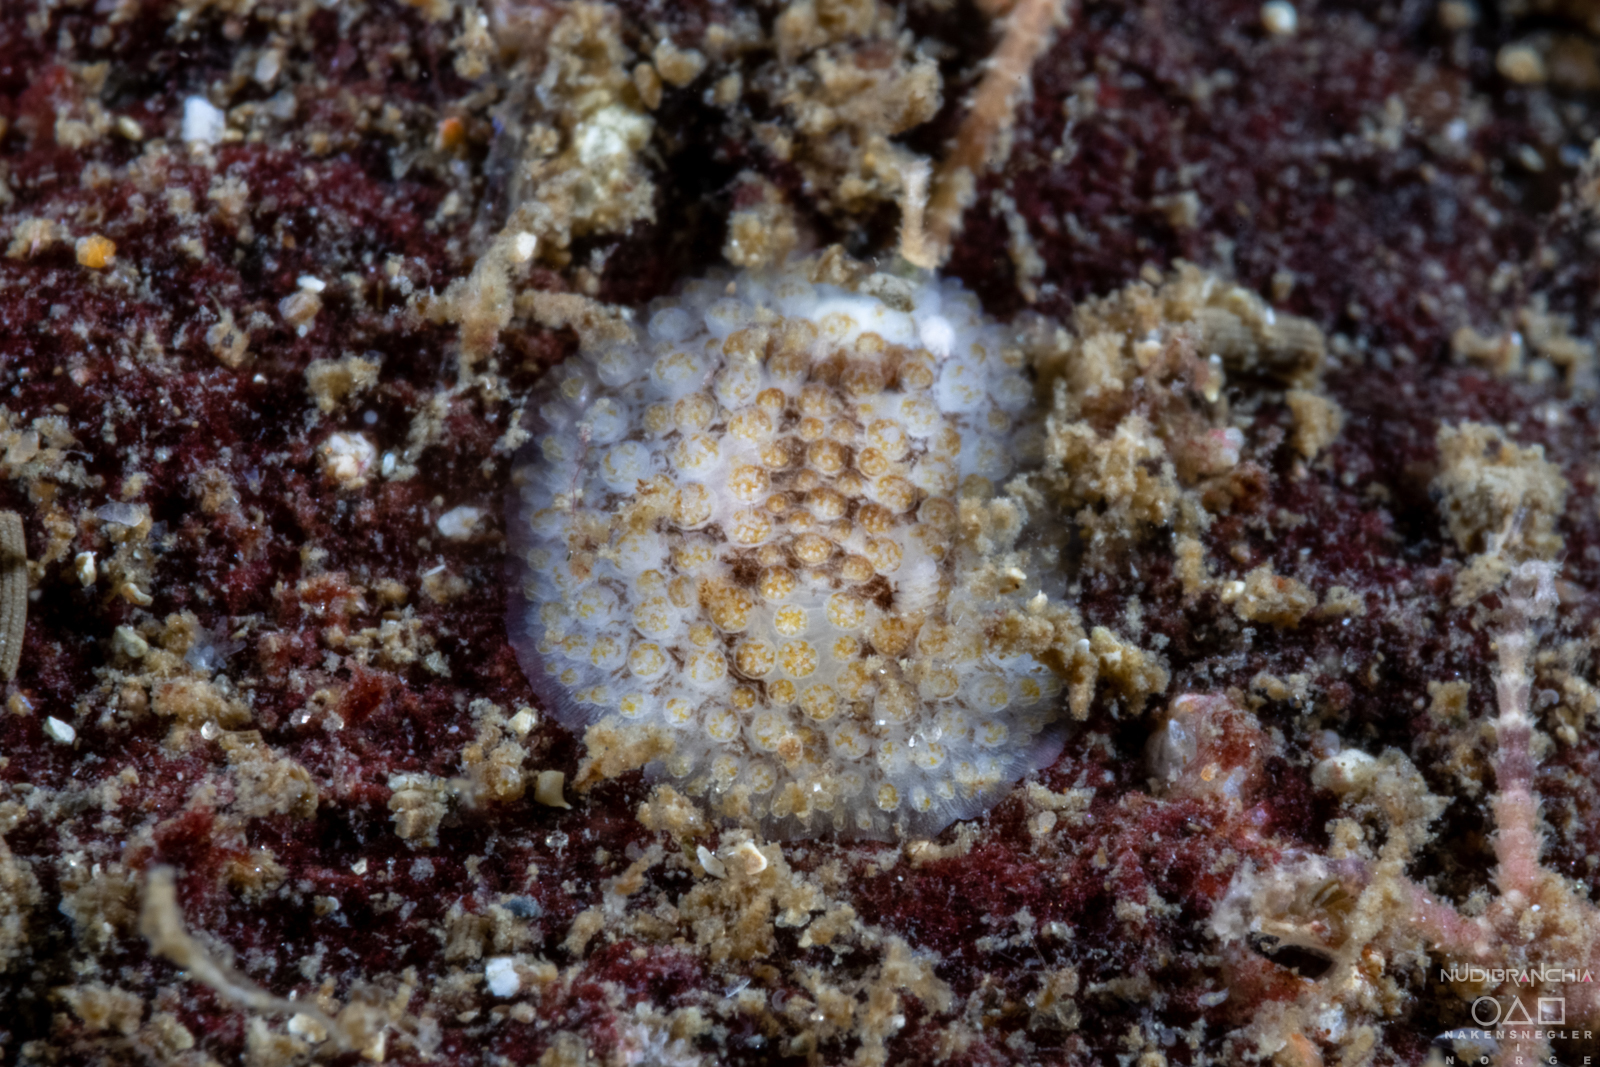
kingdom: Animalia
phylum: Mollusca
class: Gastropoda
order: Nudibranchia
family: Onchidorididae
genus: Onchidoris
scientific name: Onchidoris bilamellata
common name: Barnacle-eating onchidoris
